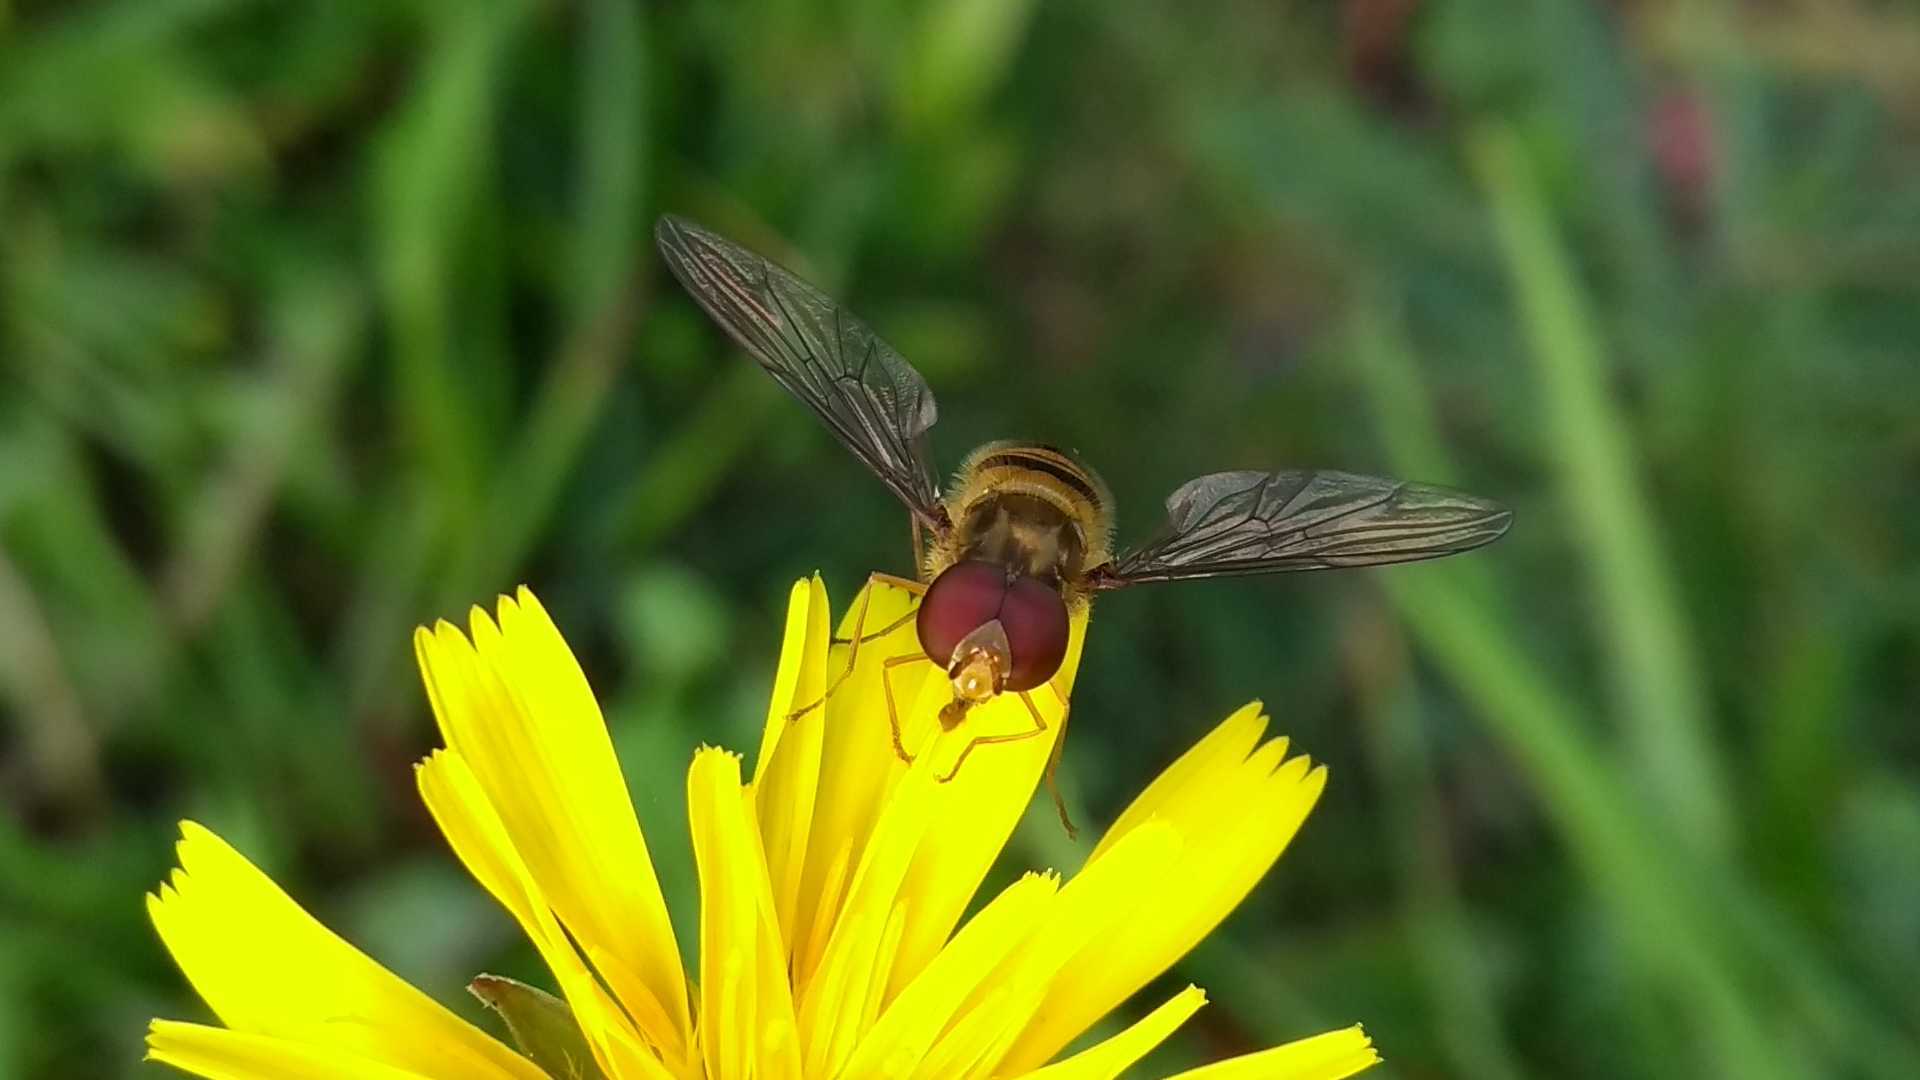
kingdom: Animalia
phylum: Arthropoda
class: Insecta
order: Diptera
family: Syrphidae
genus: Episyrphus
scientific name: Episyrphus balteatus
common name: Marmalade hoverfly
